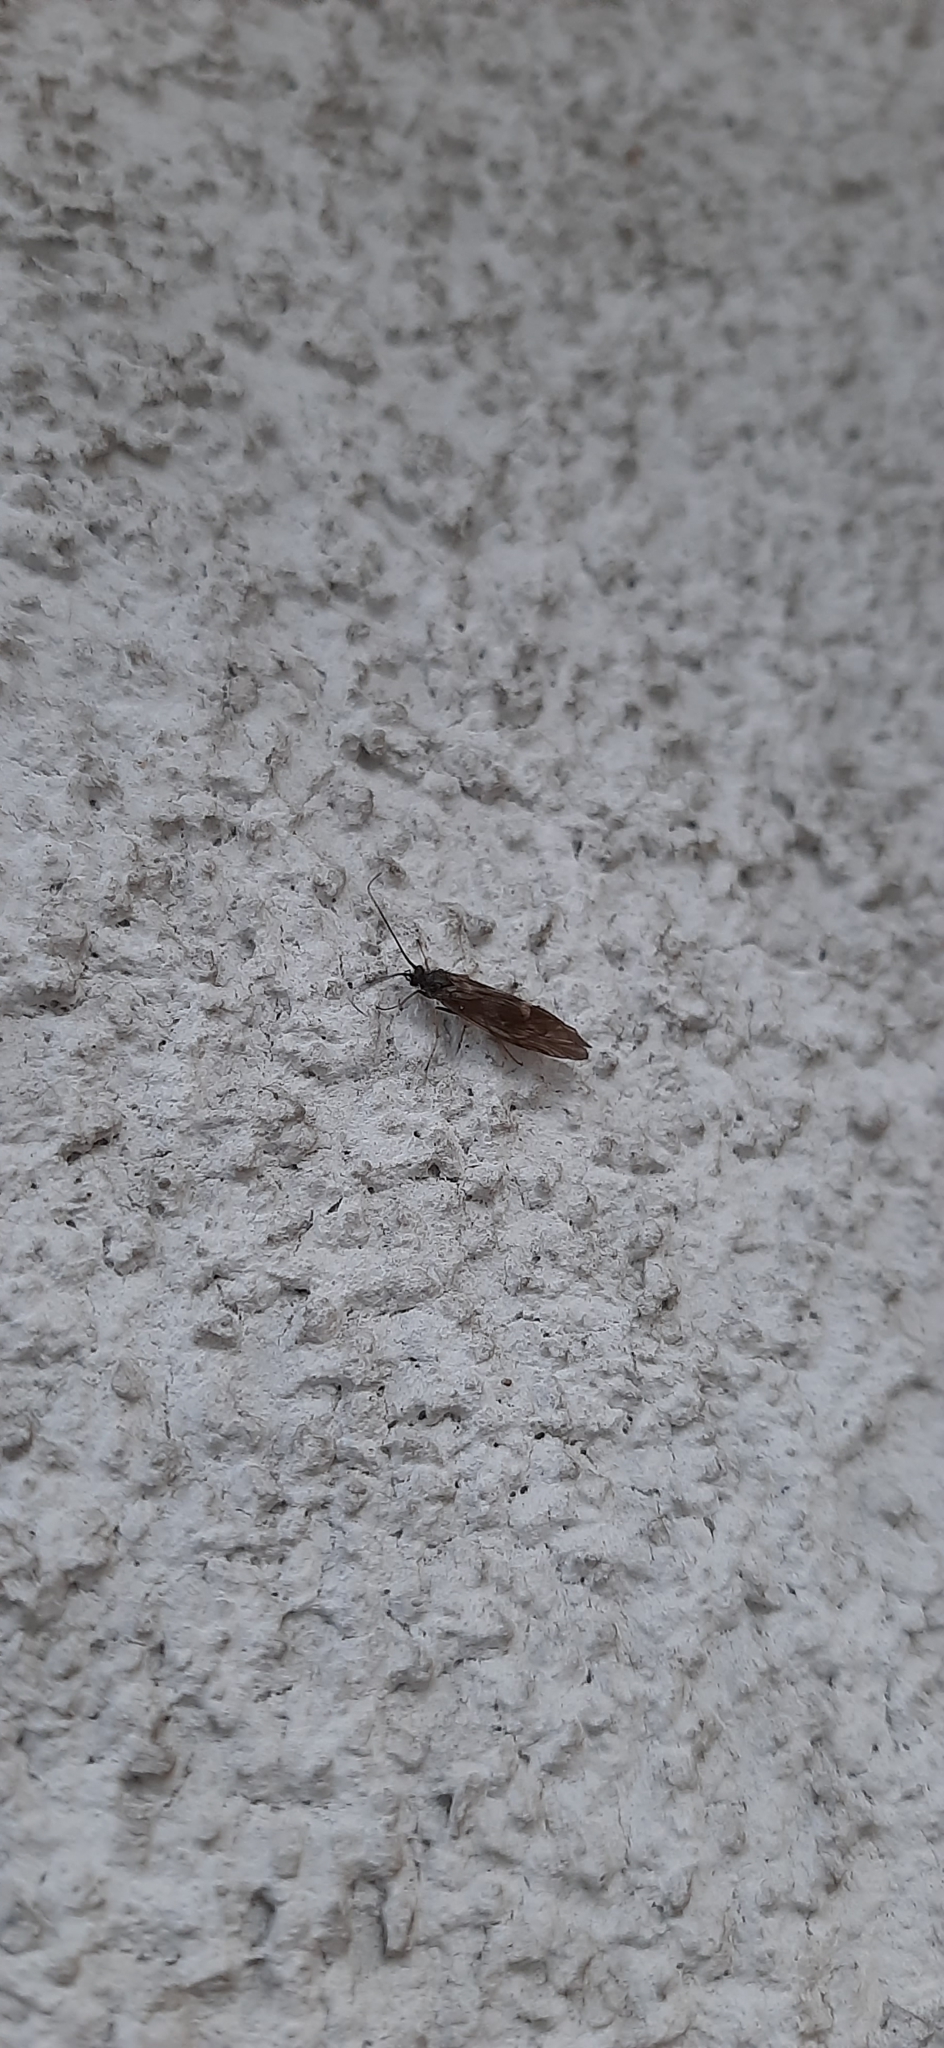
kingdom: Animalia
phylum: Arthropoda
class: Insecta
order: Trichoptera
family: Brachycentridae
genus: Brachycentrus
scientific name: Brachycentrus subnubilis
